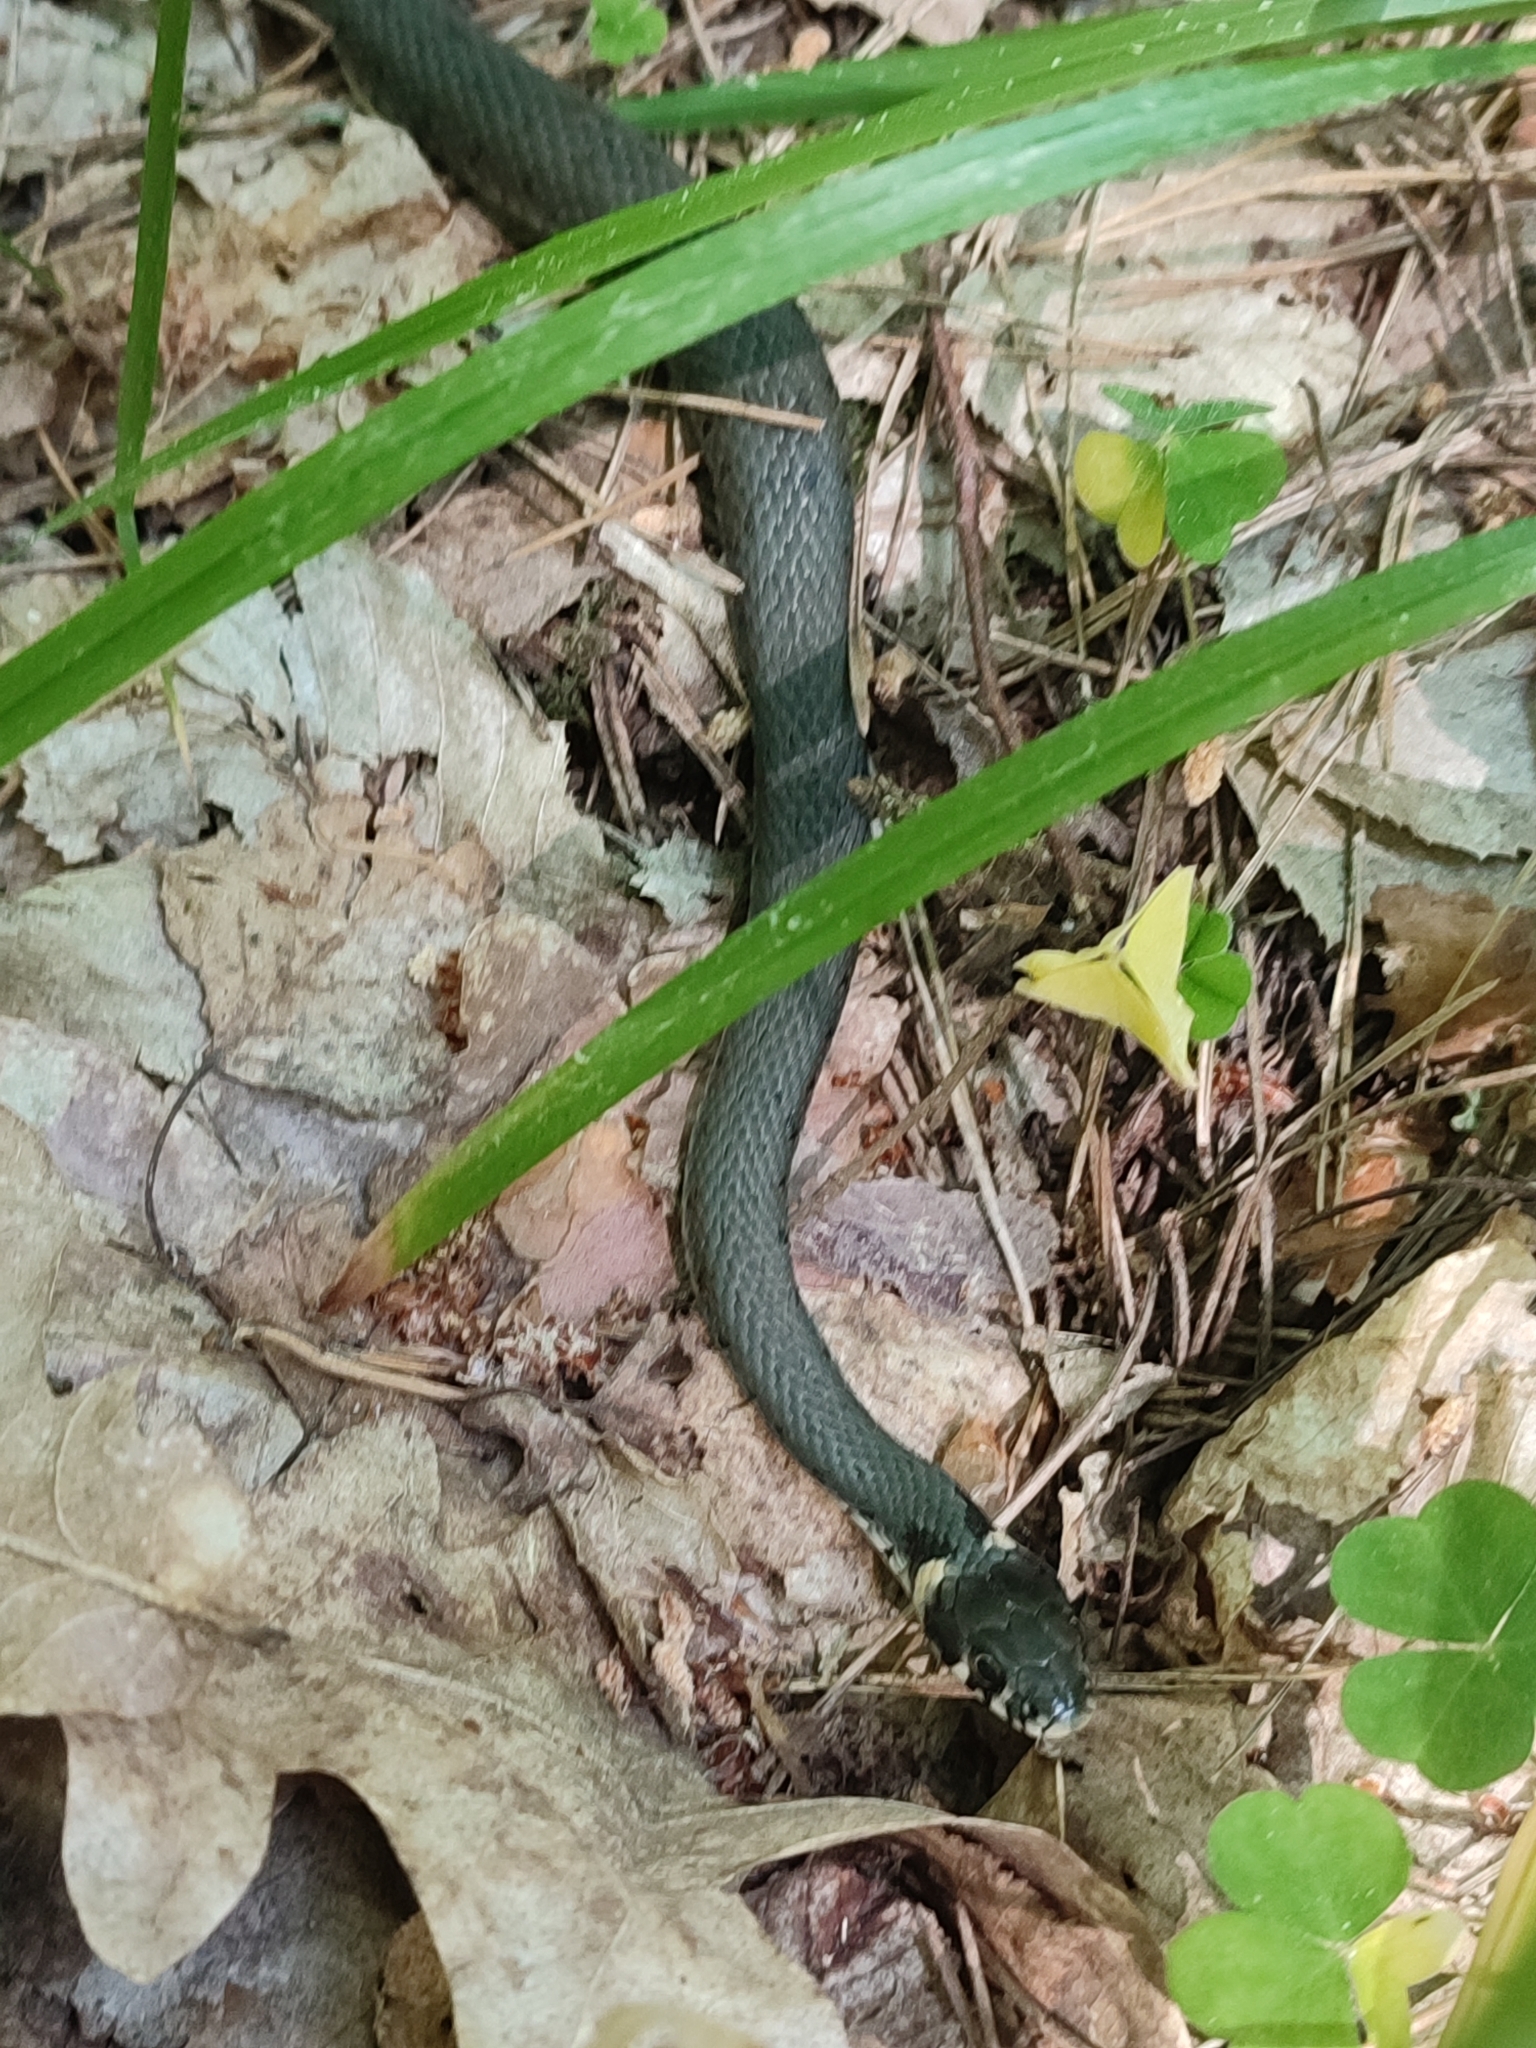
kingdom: Animalia
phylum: Chordata
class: Squamata
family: Colubridae
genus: Natrix
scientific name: Natrix natrix
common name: Grass snake
